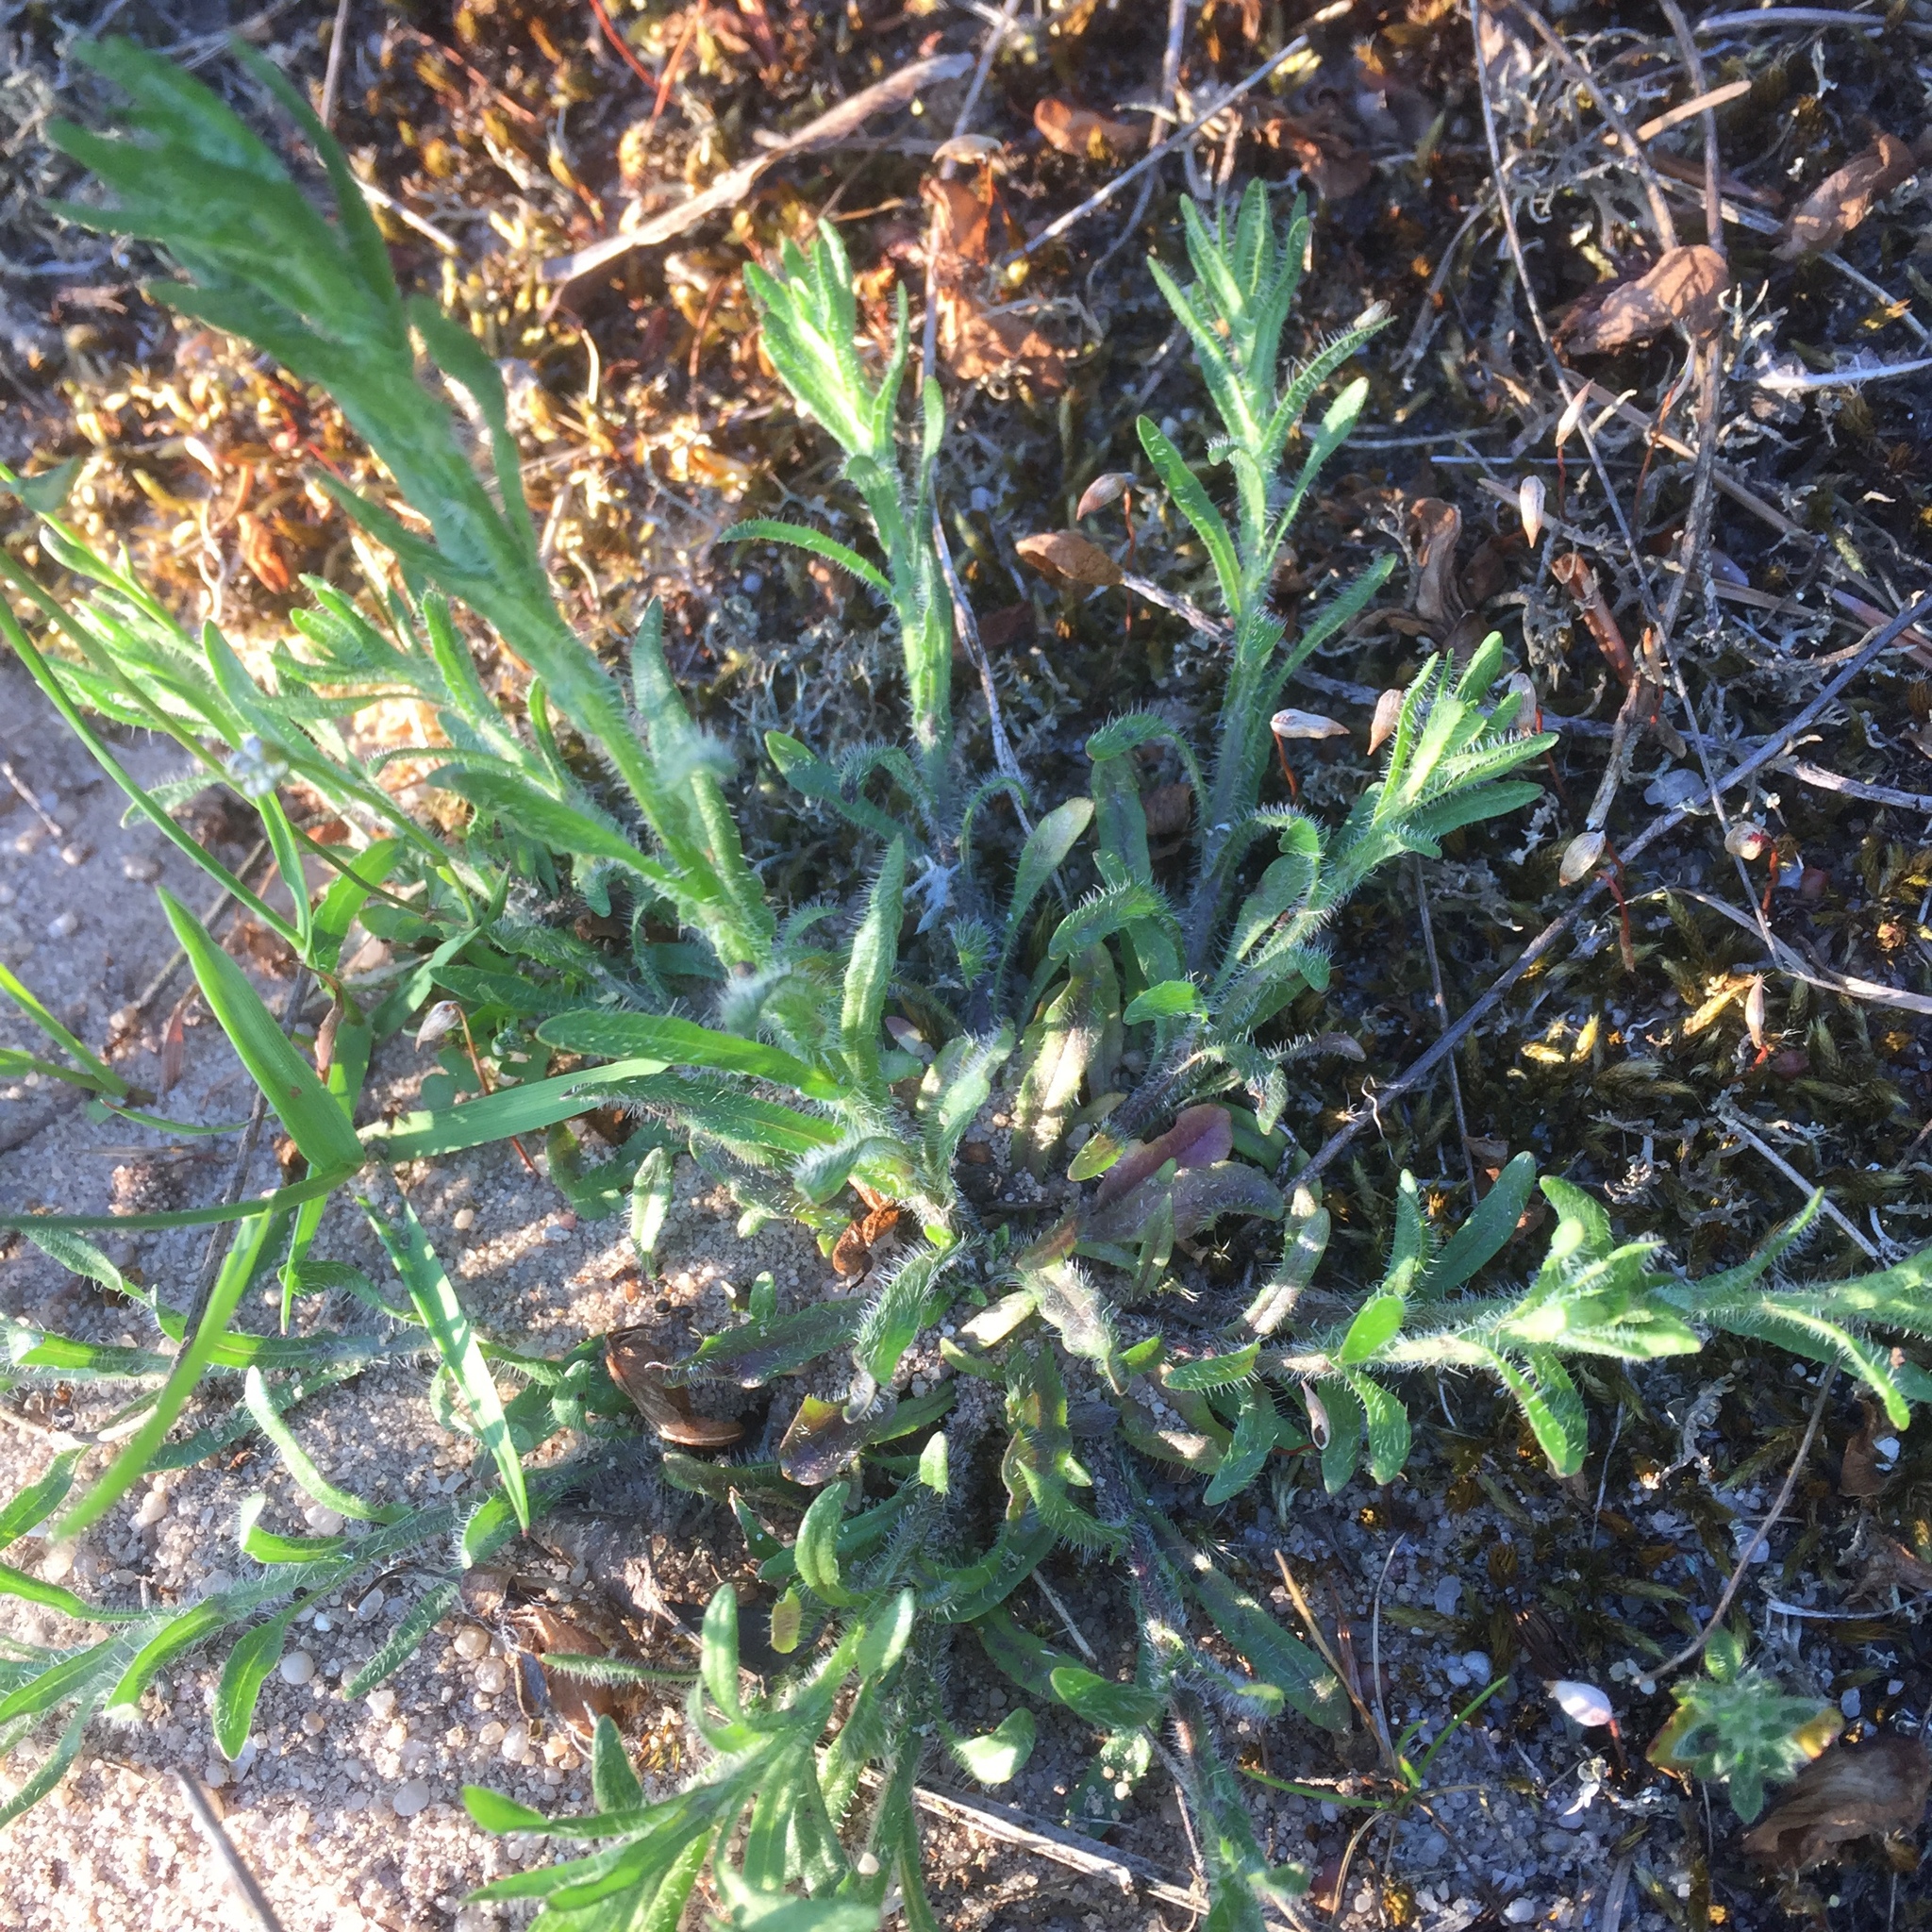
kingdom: Plantae
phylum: Tracheophyta
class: Magnoliopsida
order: Asterales
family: Campanulaceae
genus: Jasione
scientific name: Jasione montana
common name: Sheep's-bit
